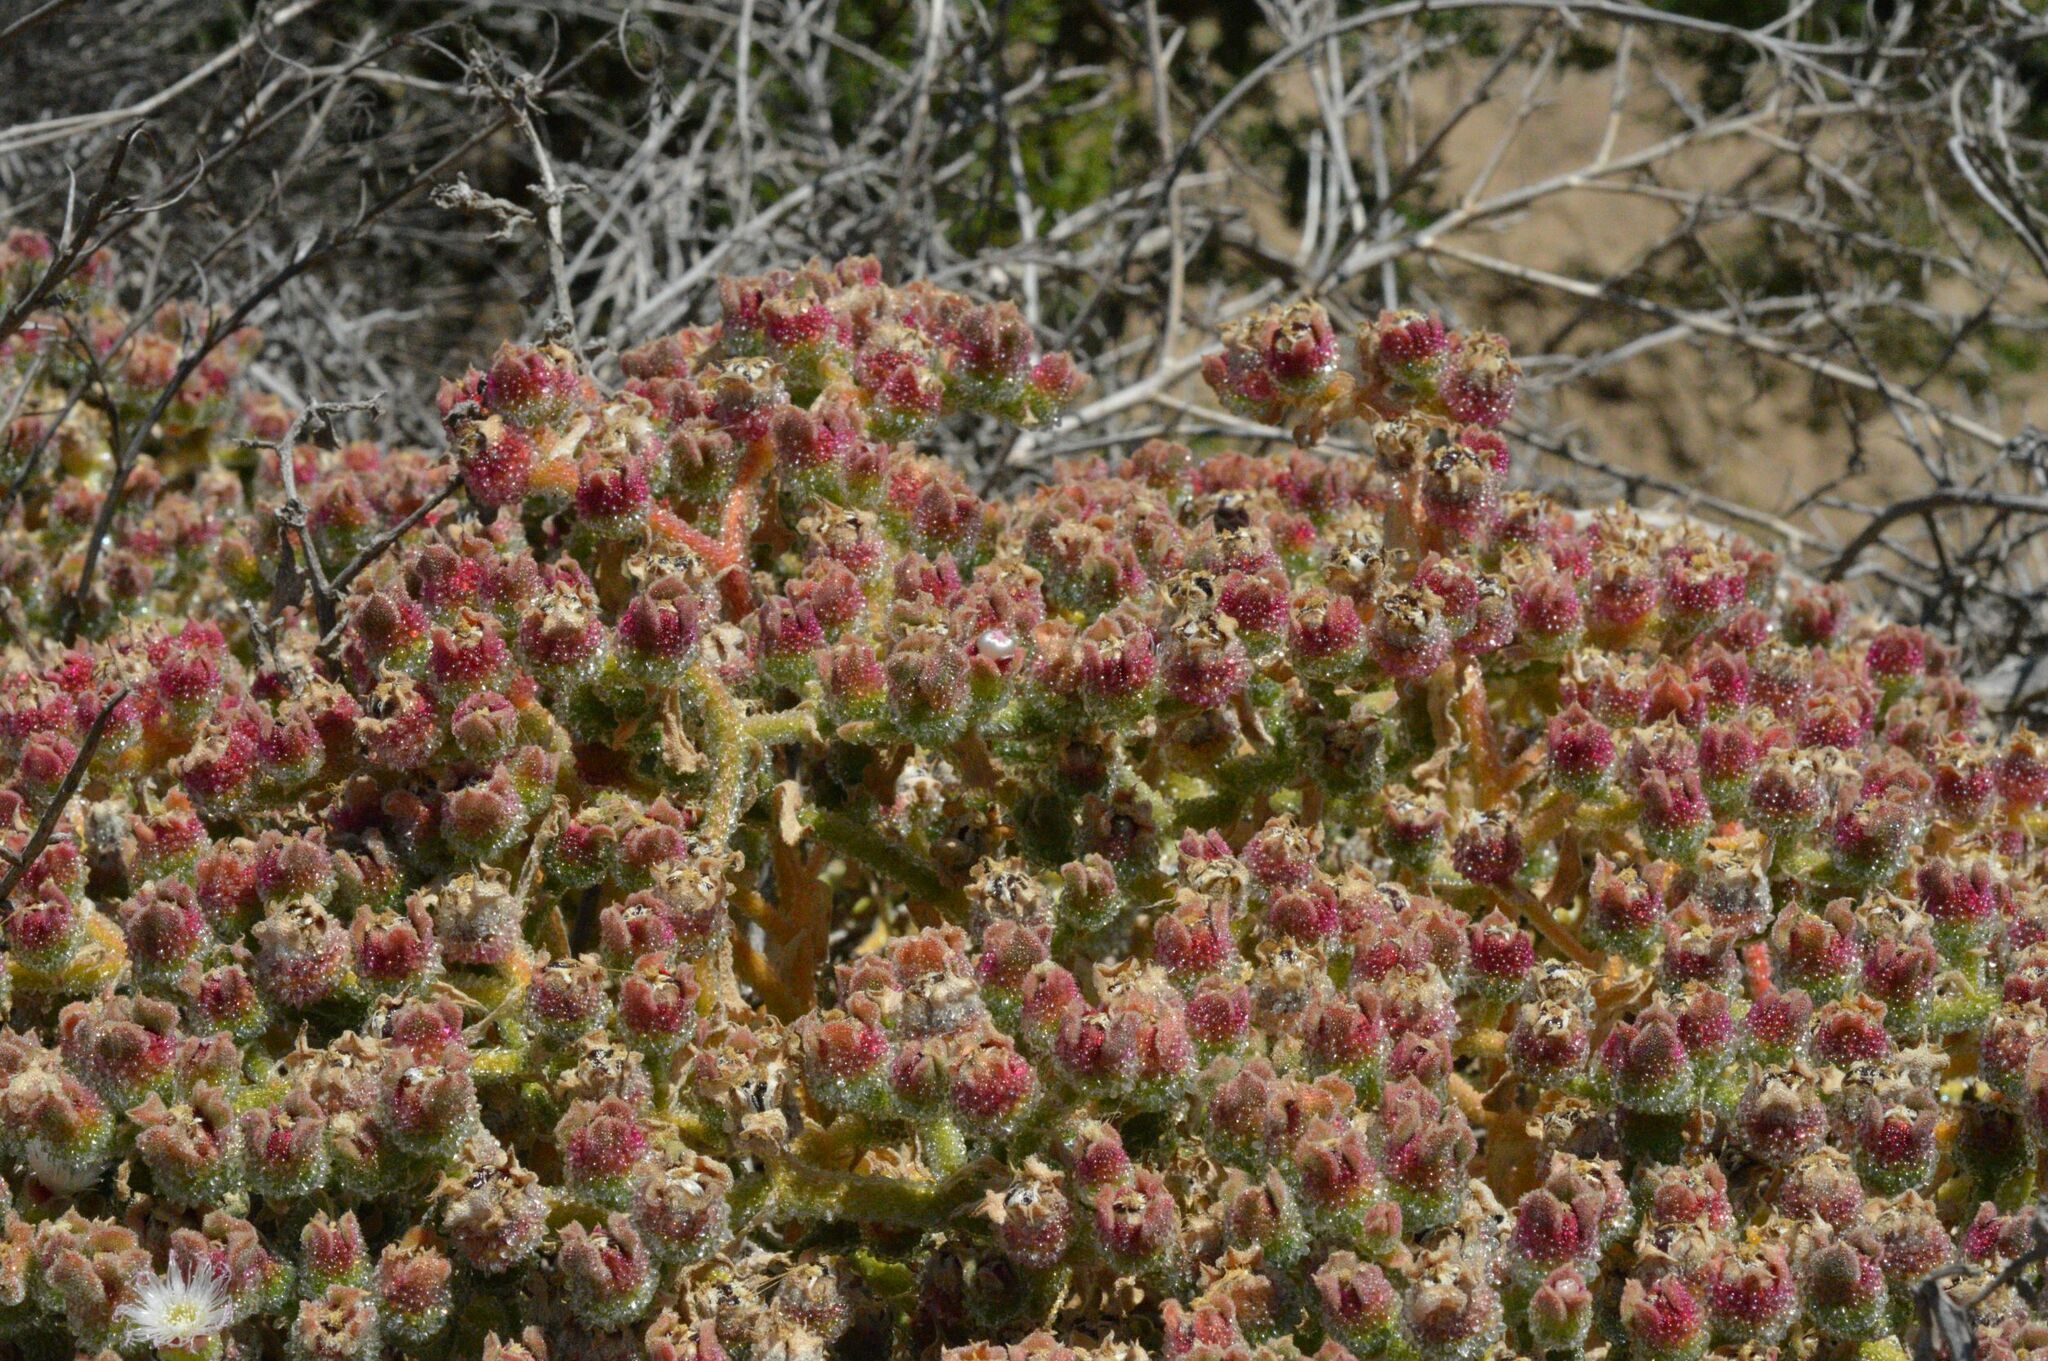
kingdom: Plantae
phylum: Tracheophyta
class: Magnoliopsida
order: Caryophyllales
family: Aizoaceae
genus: Mesembryanthemum
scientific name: Mesembryanthemum crystallinum
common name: Common iceplant
